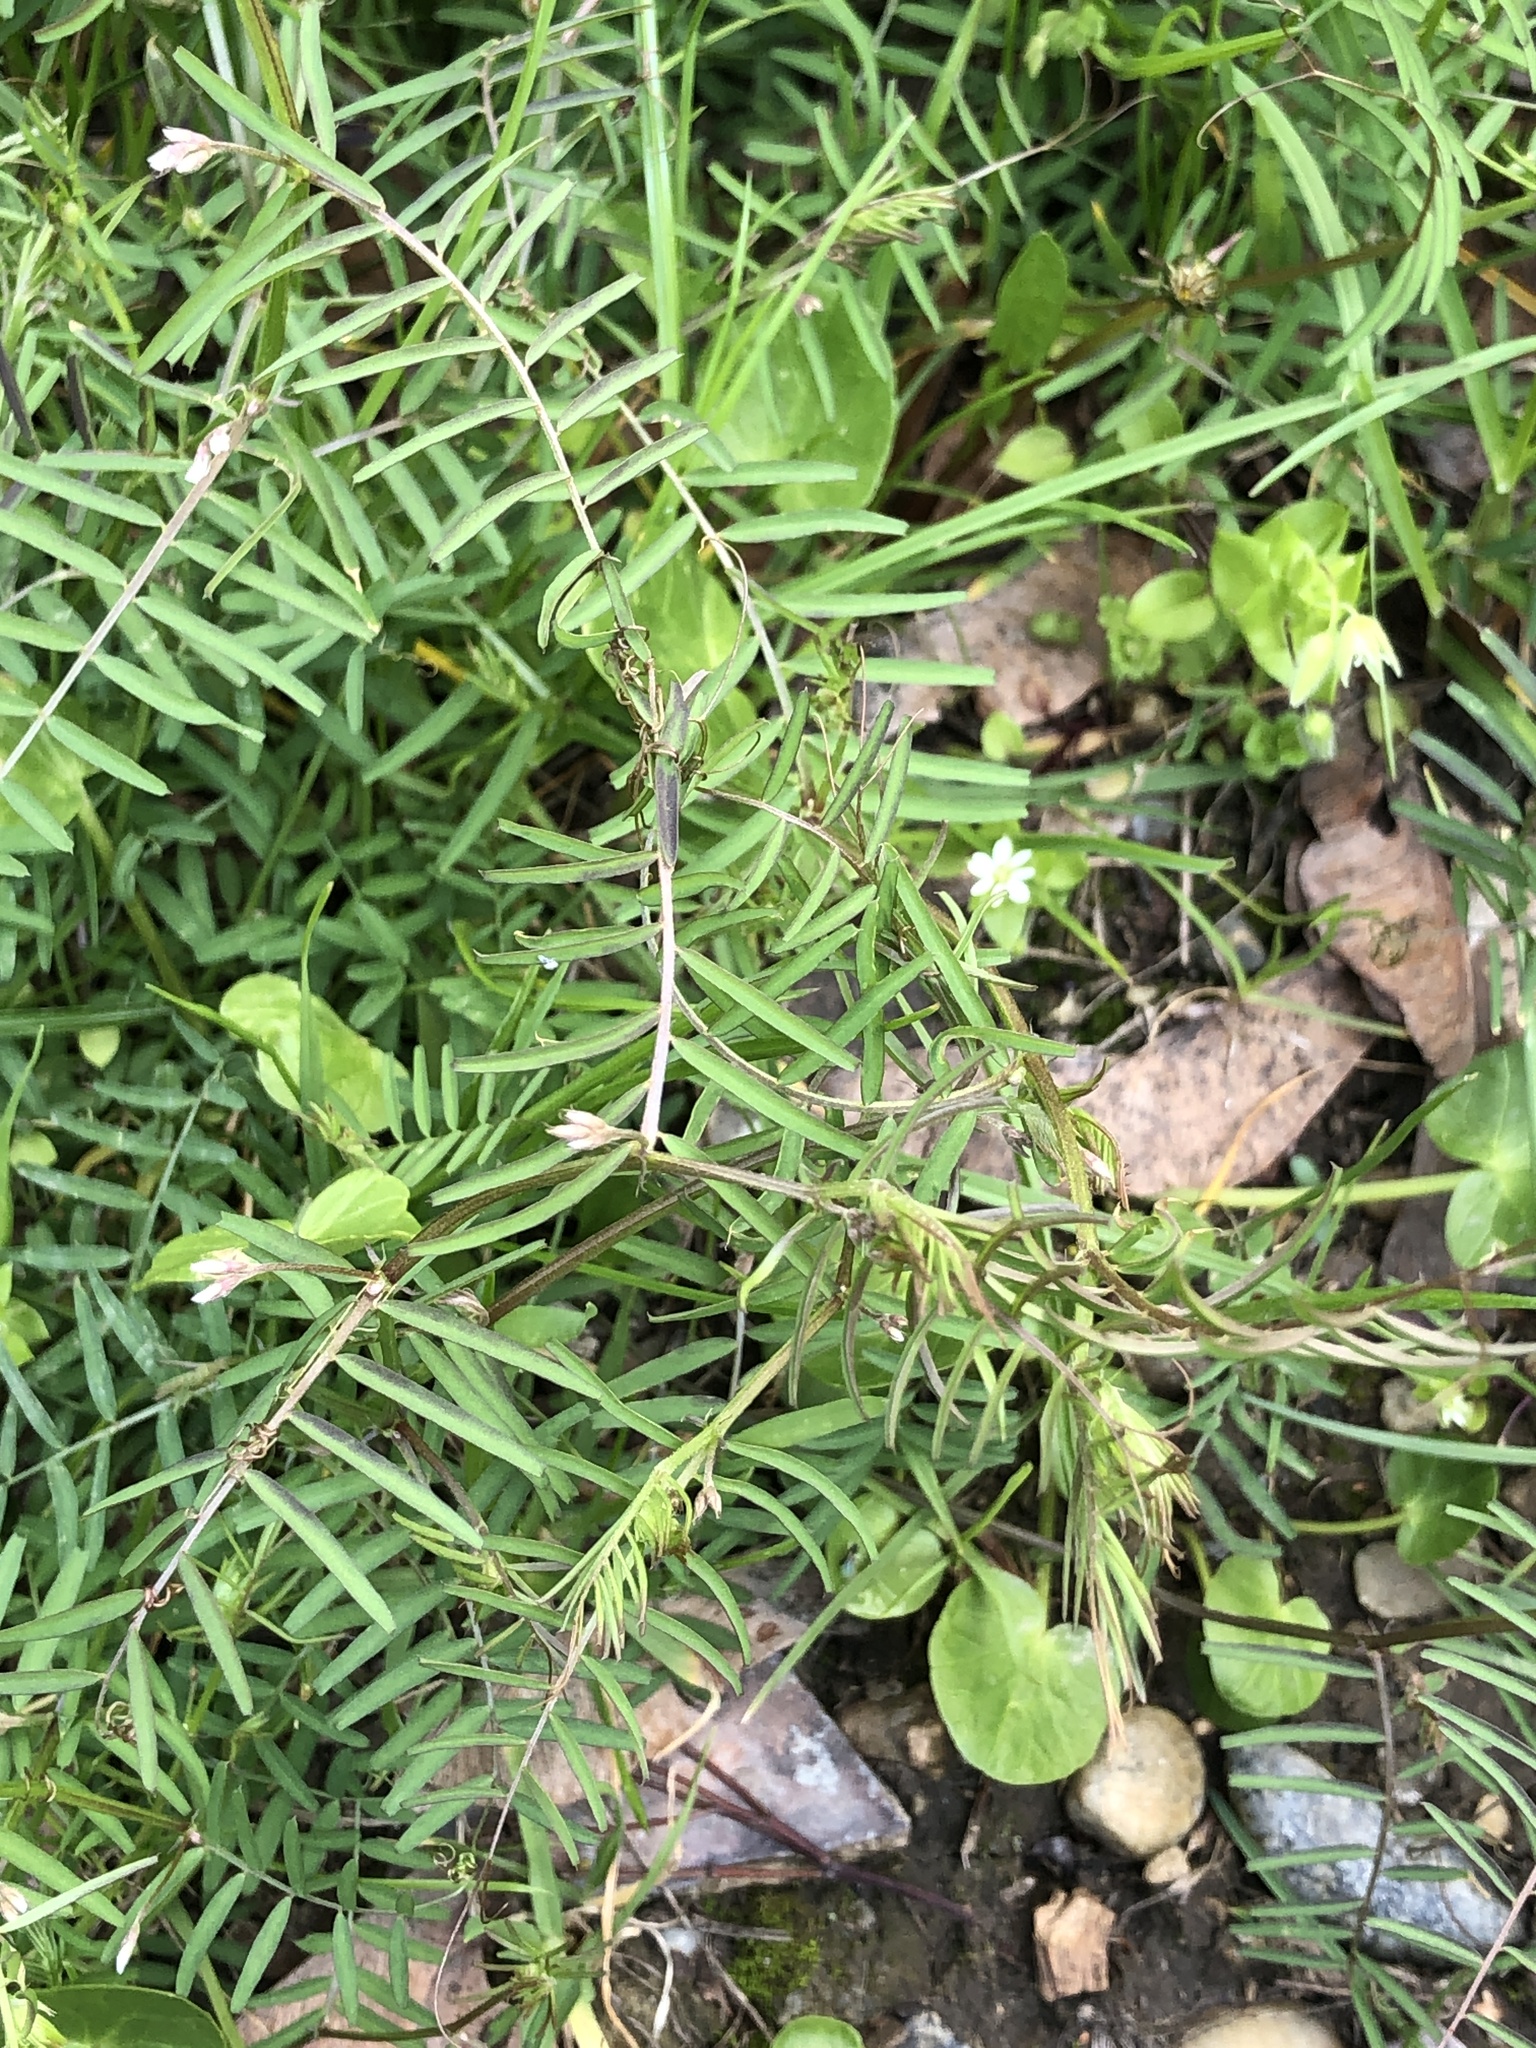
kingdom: Plantae
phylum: Tracheophyta
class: Magnoliopsida
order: Fabales
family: Fabaceae
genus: Vicia
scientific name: Vicia tetrasperma
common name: Smooth tare
